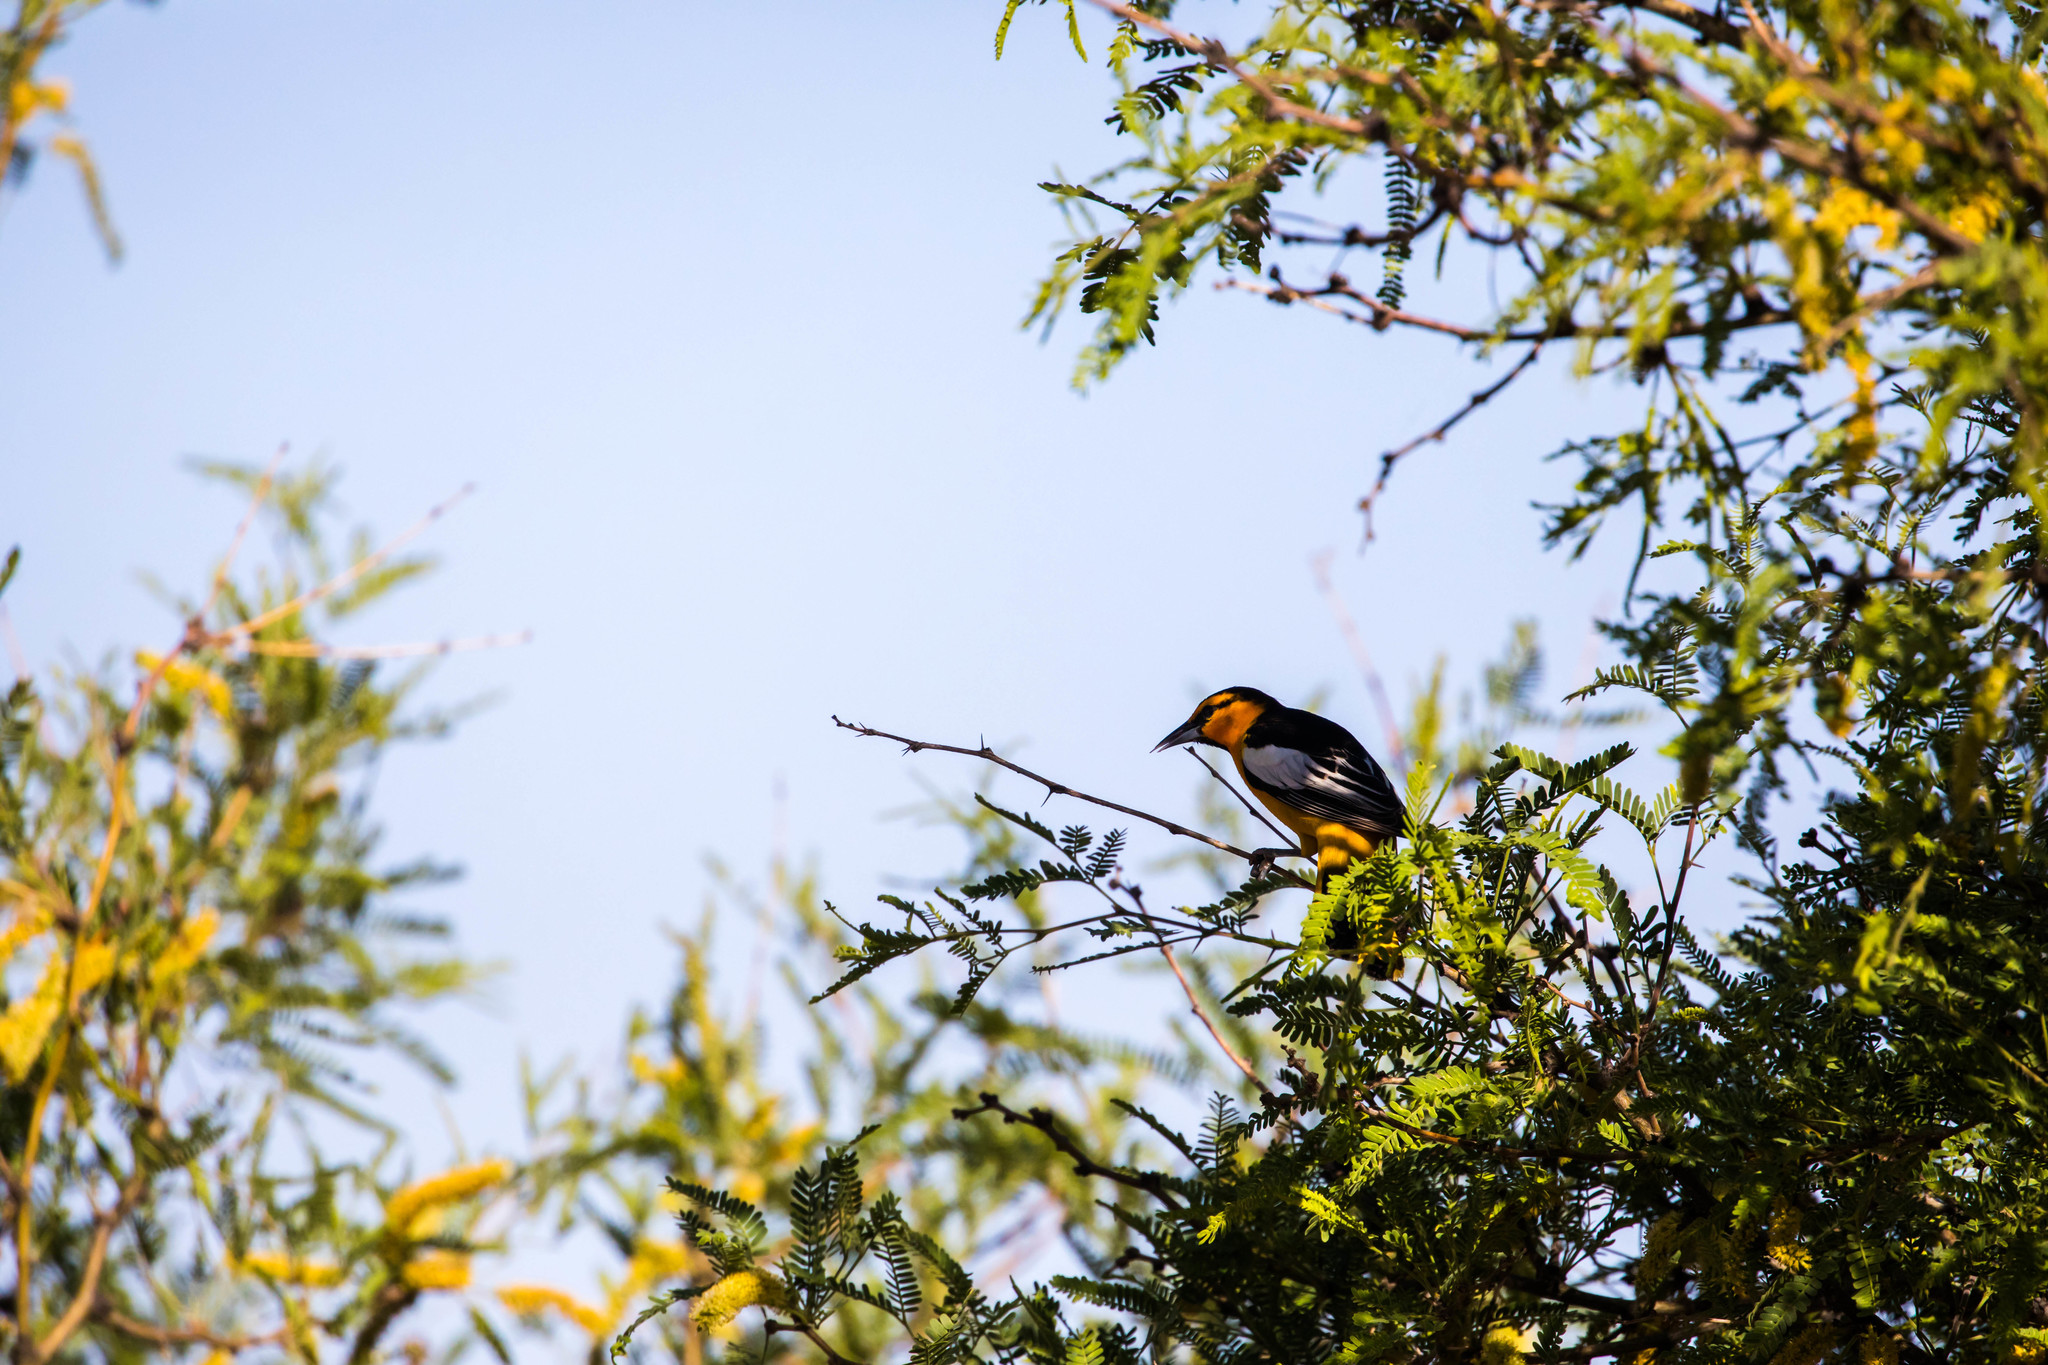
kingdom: Animalia
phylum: Chordata
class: Aves
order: Passeriformes
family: Icteridae
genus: Icterus
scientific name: Icterus bullockii
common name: Bullock's oriole
